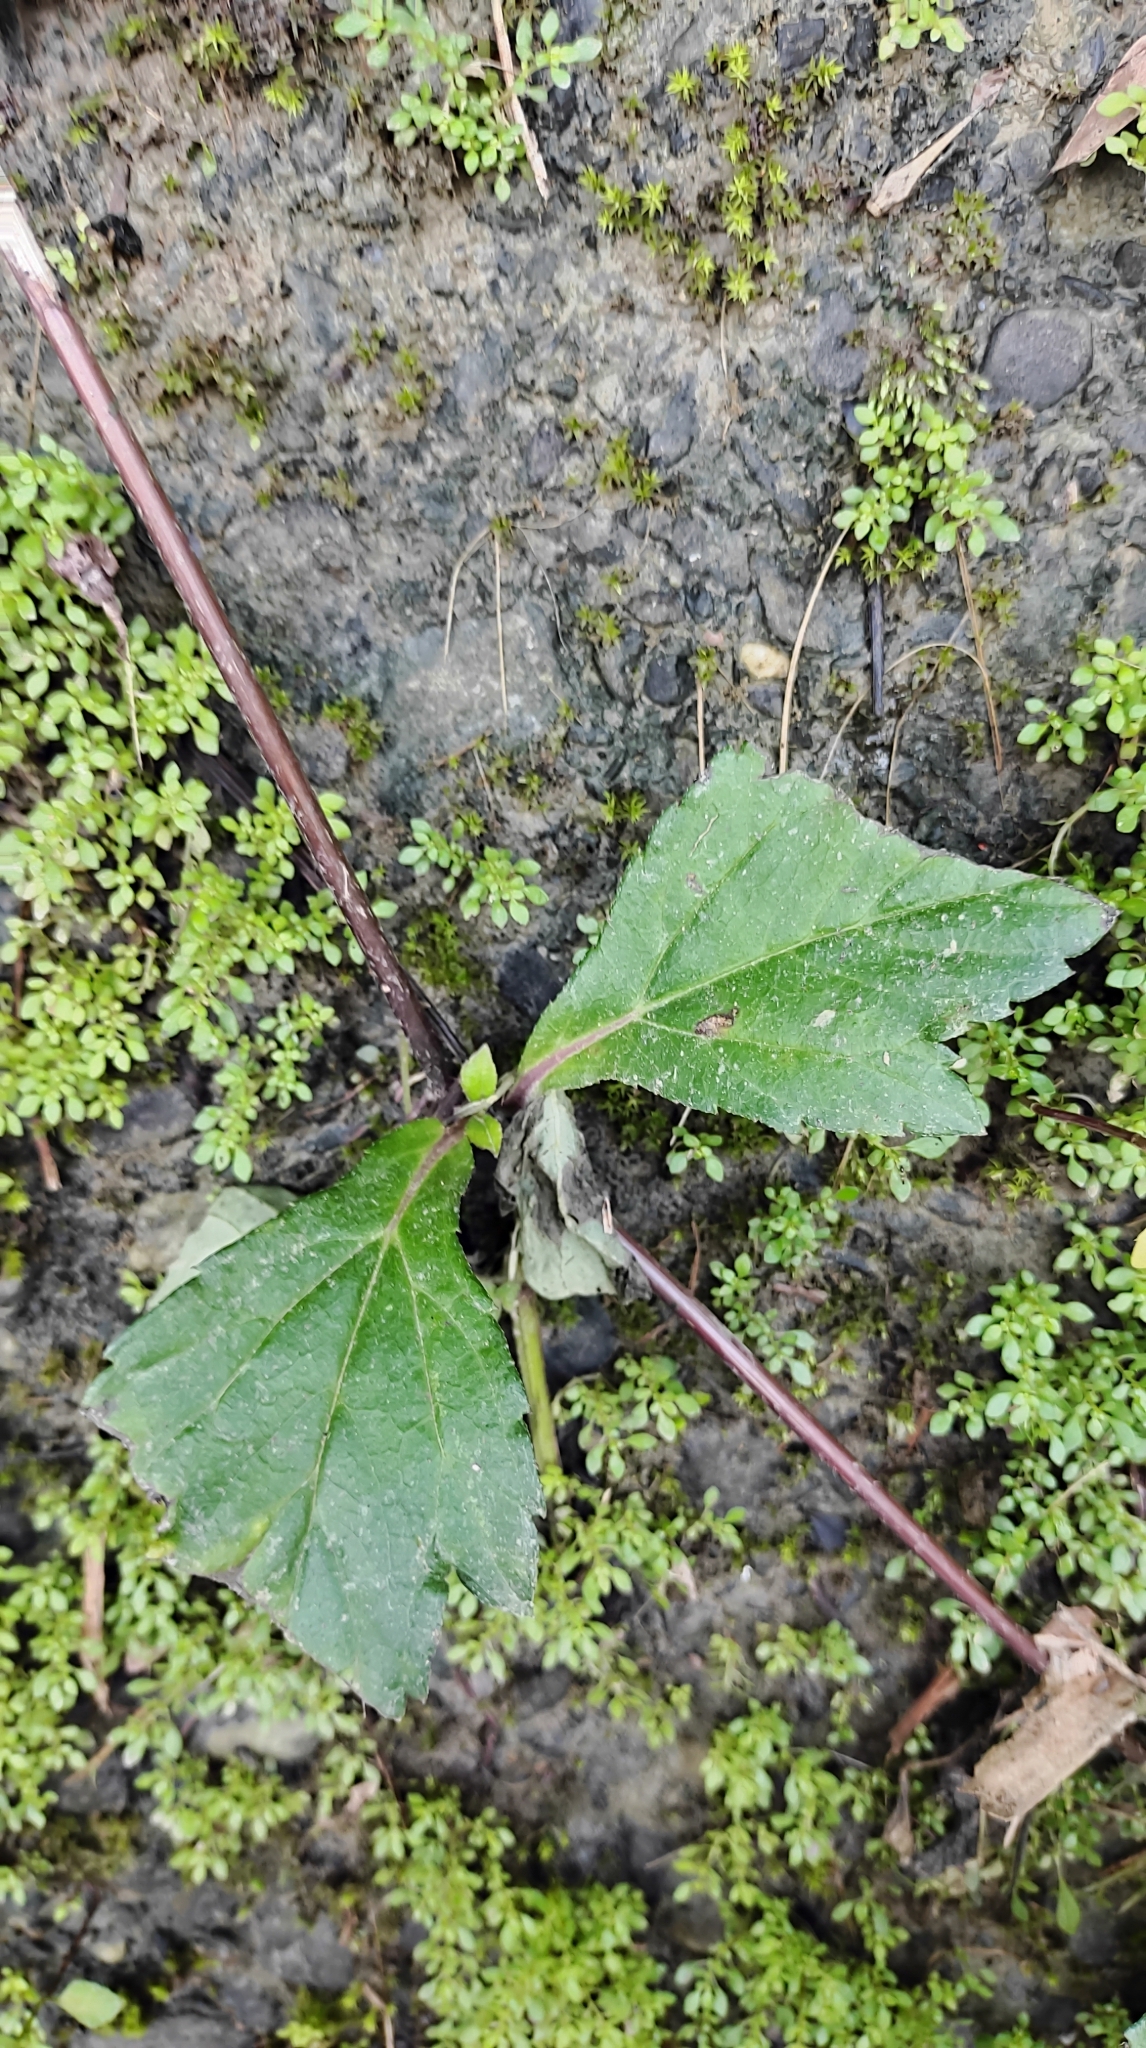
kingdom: Plantae
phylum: Tracheophyta
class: Magnoliopsida
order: Asterales
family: Asteraceae
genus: Sphagneticola
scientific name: Sphagneticola trilobata
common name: Bay biscayne creeping-oxeye
